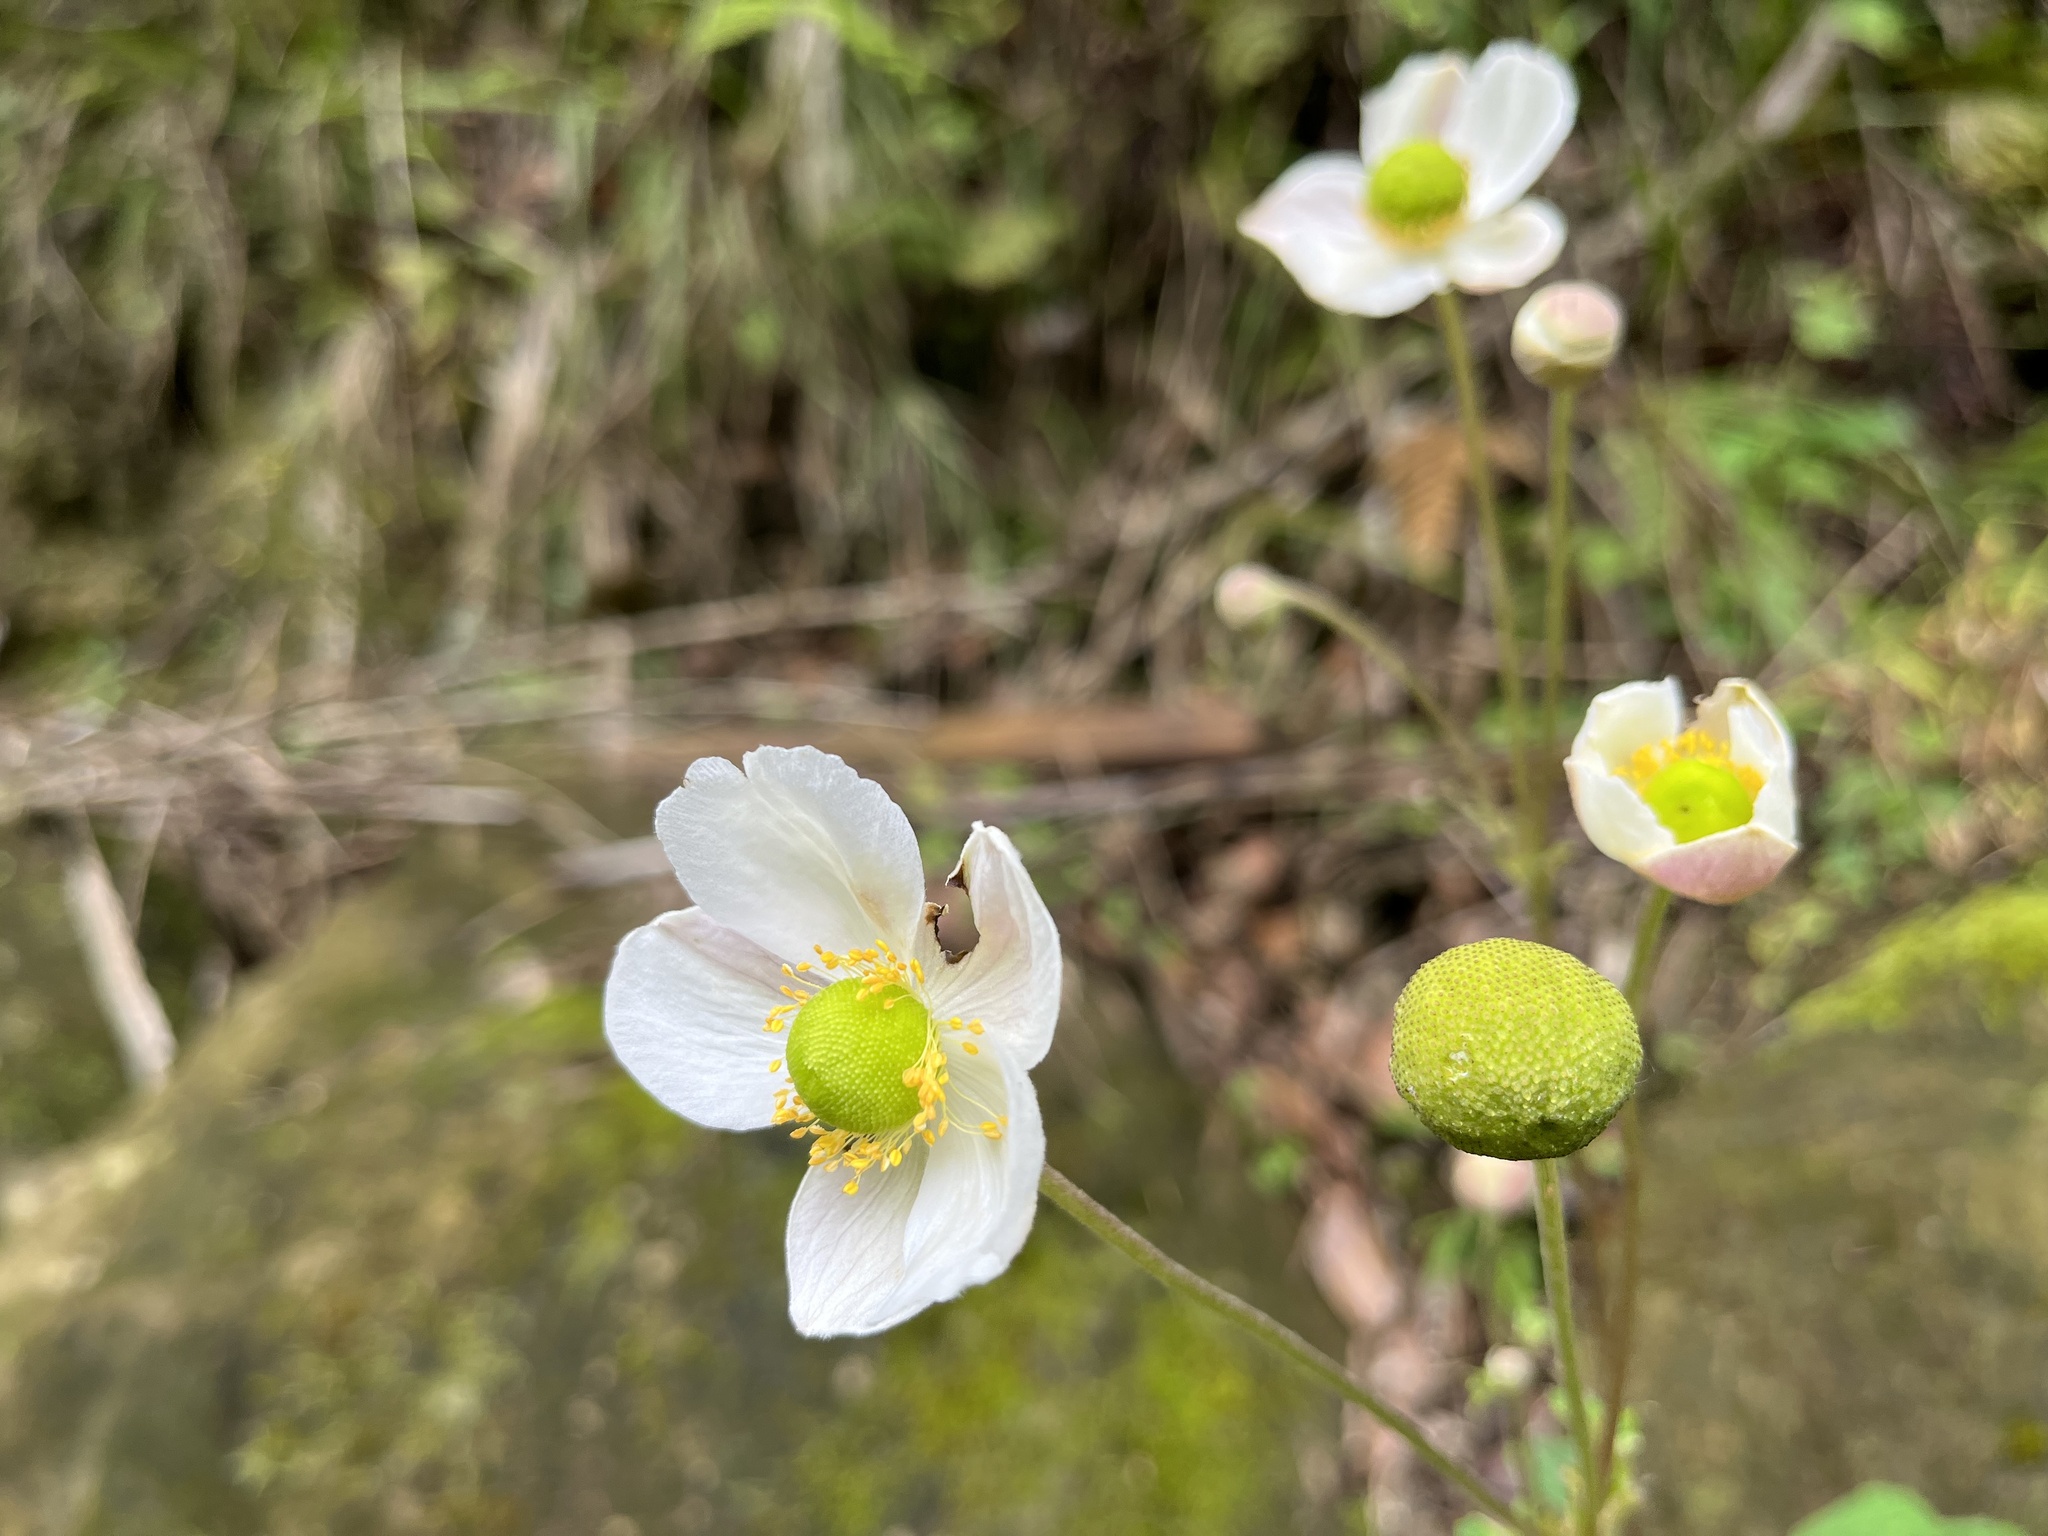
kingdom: Plantae
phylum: Tracheophyta
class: Magnoliopsida
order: Ranunculales
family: Ranunculaceae
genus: Eriocapitella
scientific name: Eriocapitella vitifolia
